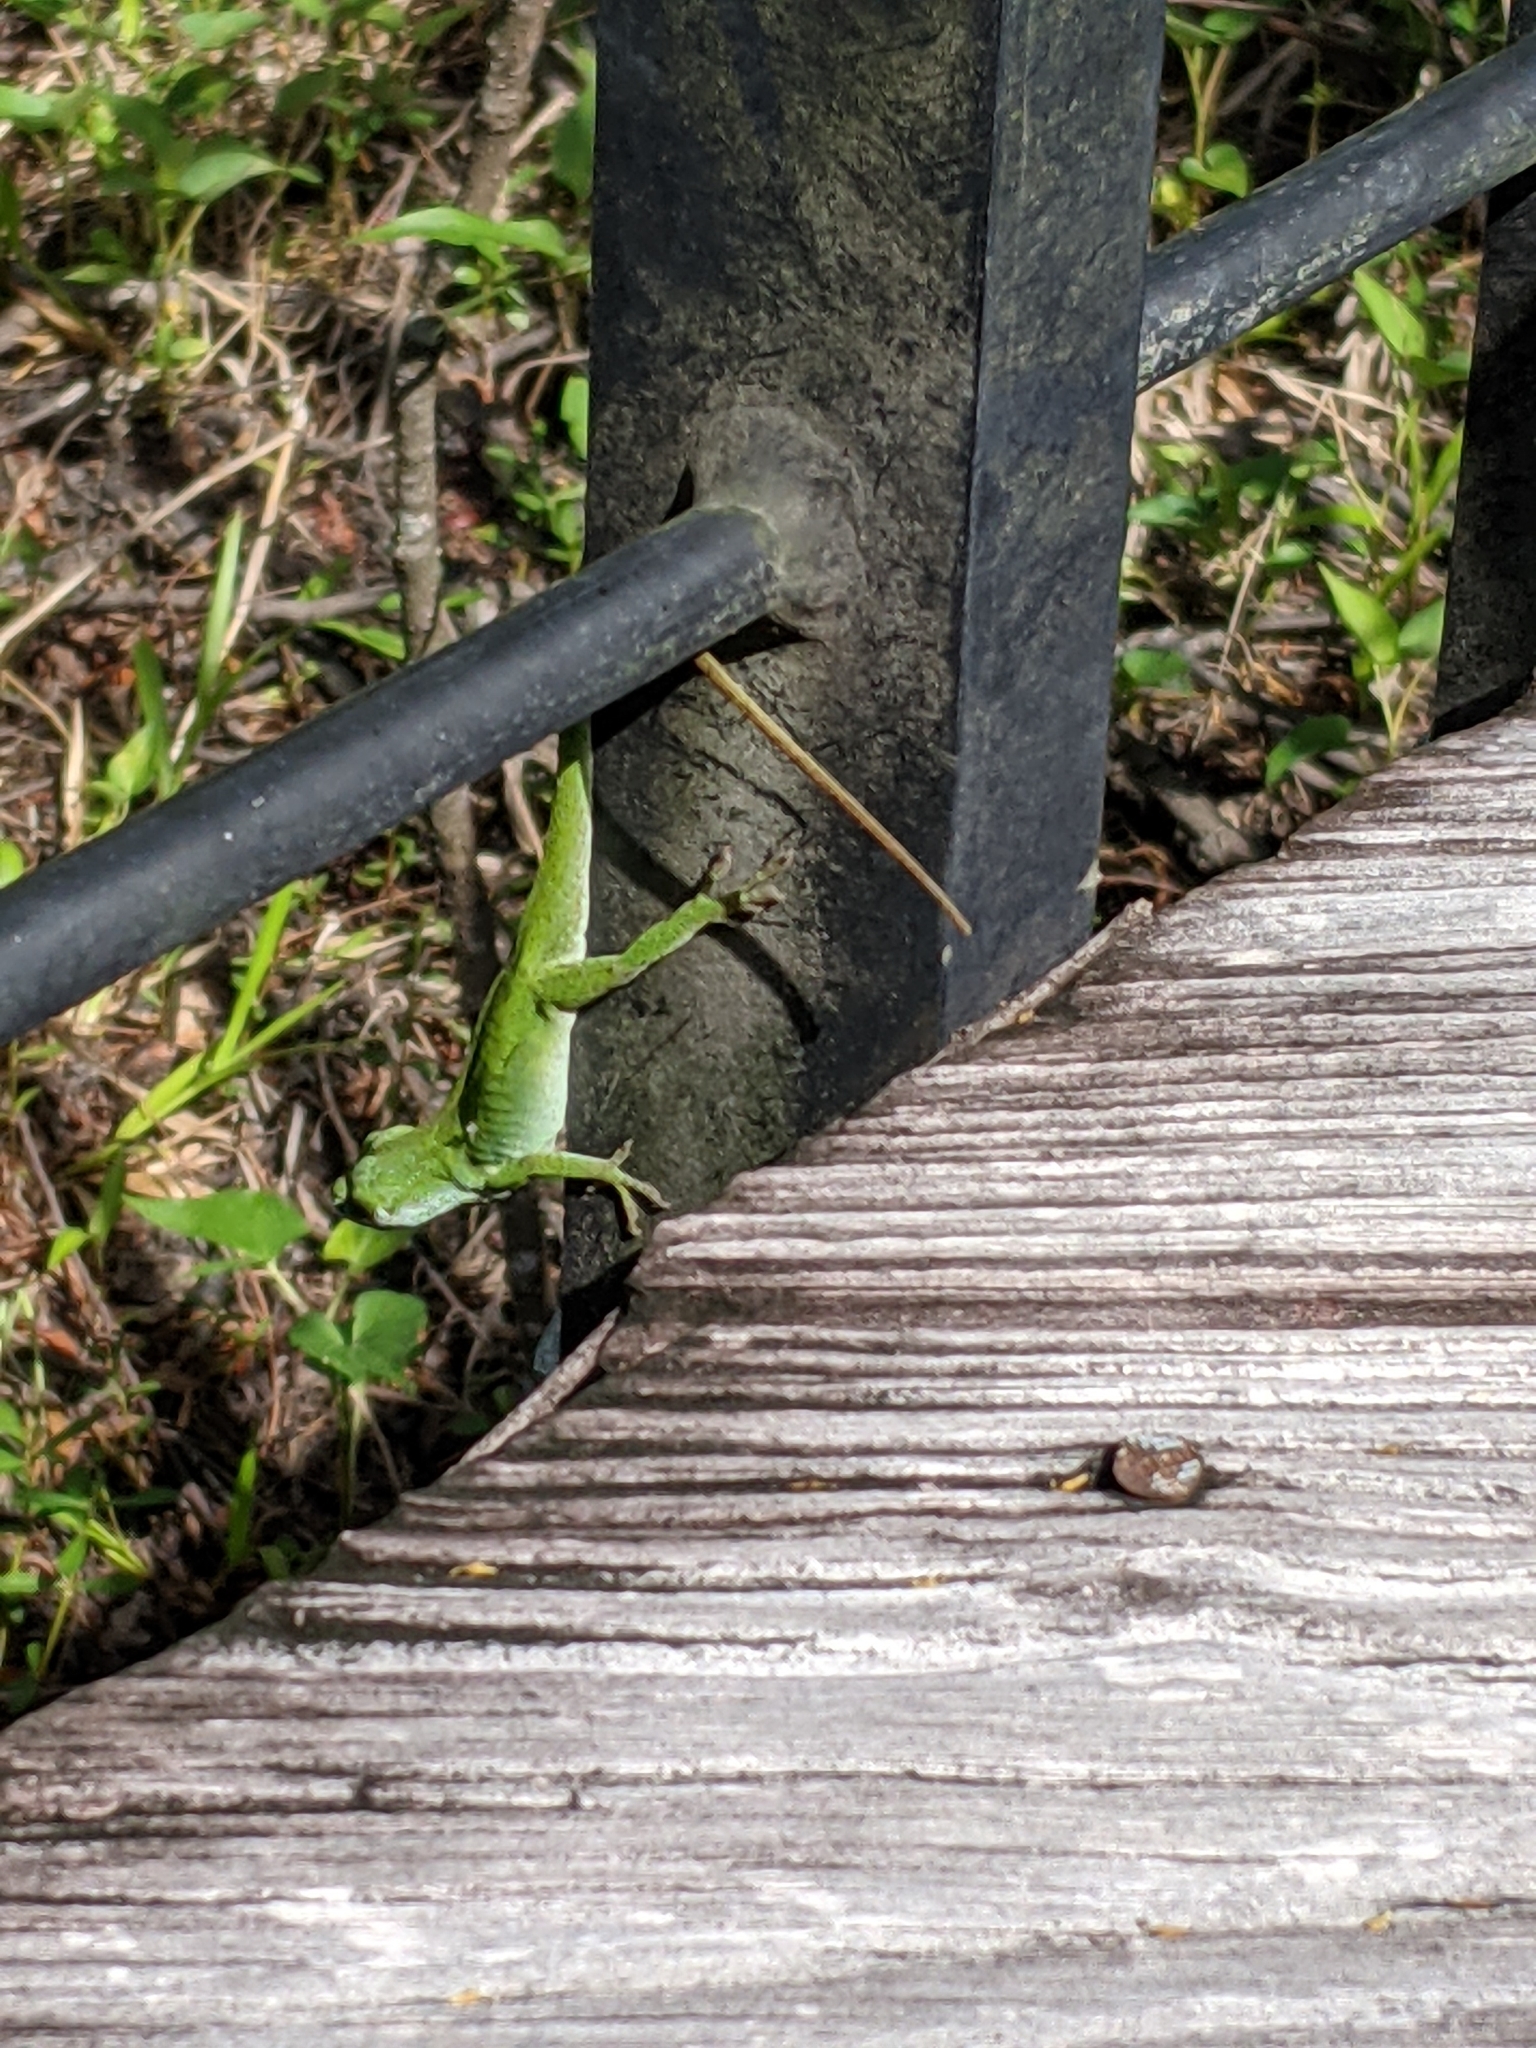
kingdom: Animalia
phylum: Chordata
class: Squamata
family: Dactyloidae
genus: Anolis
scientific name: Anolis carolinensis
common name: Green anole
